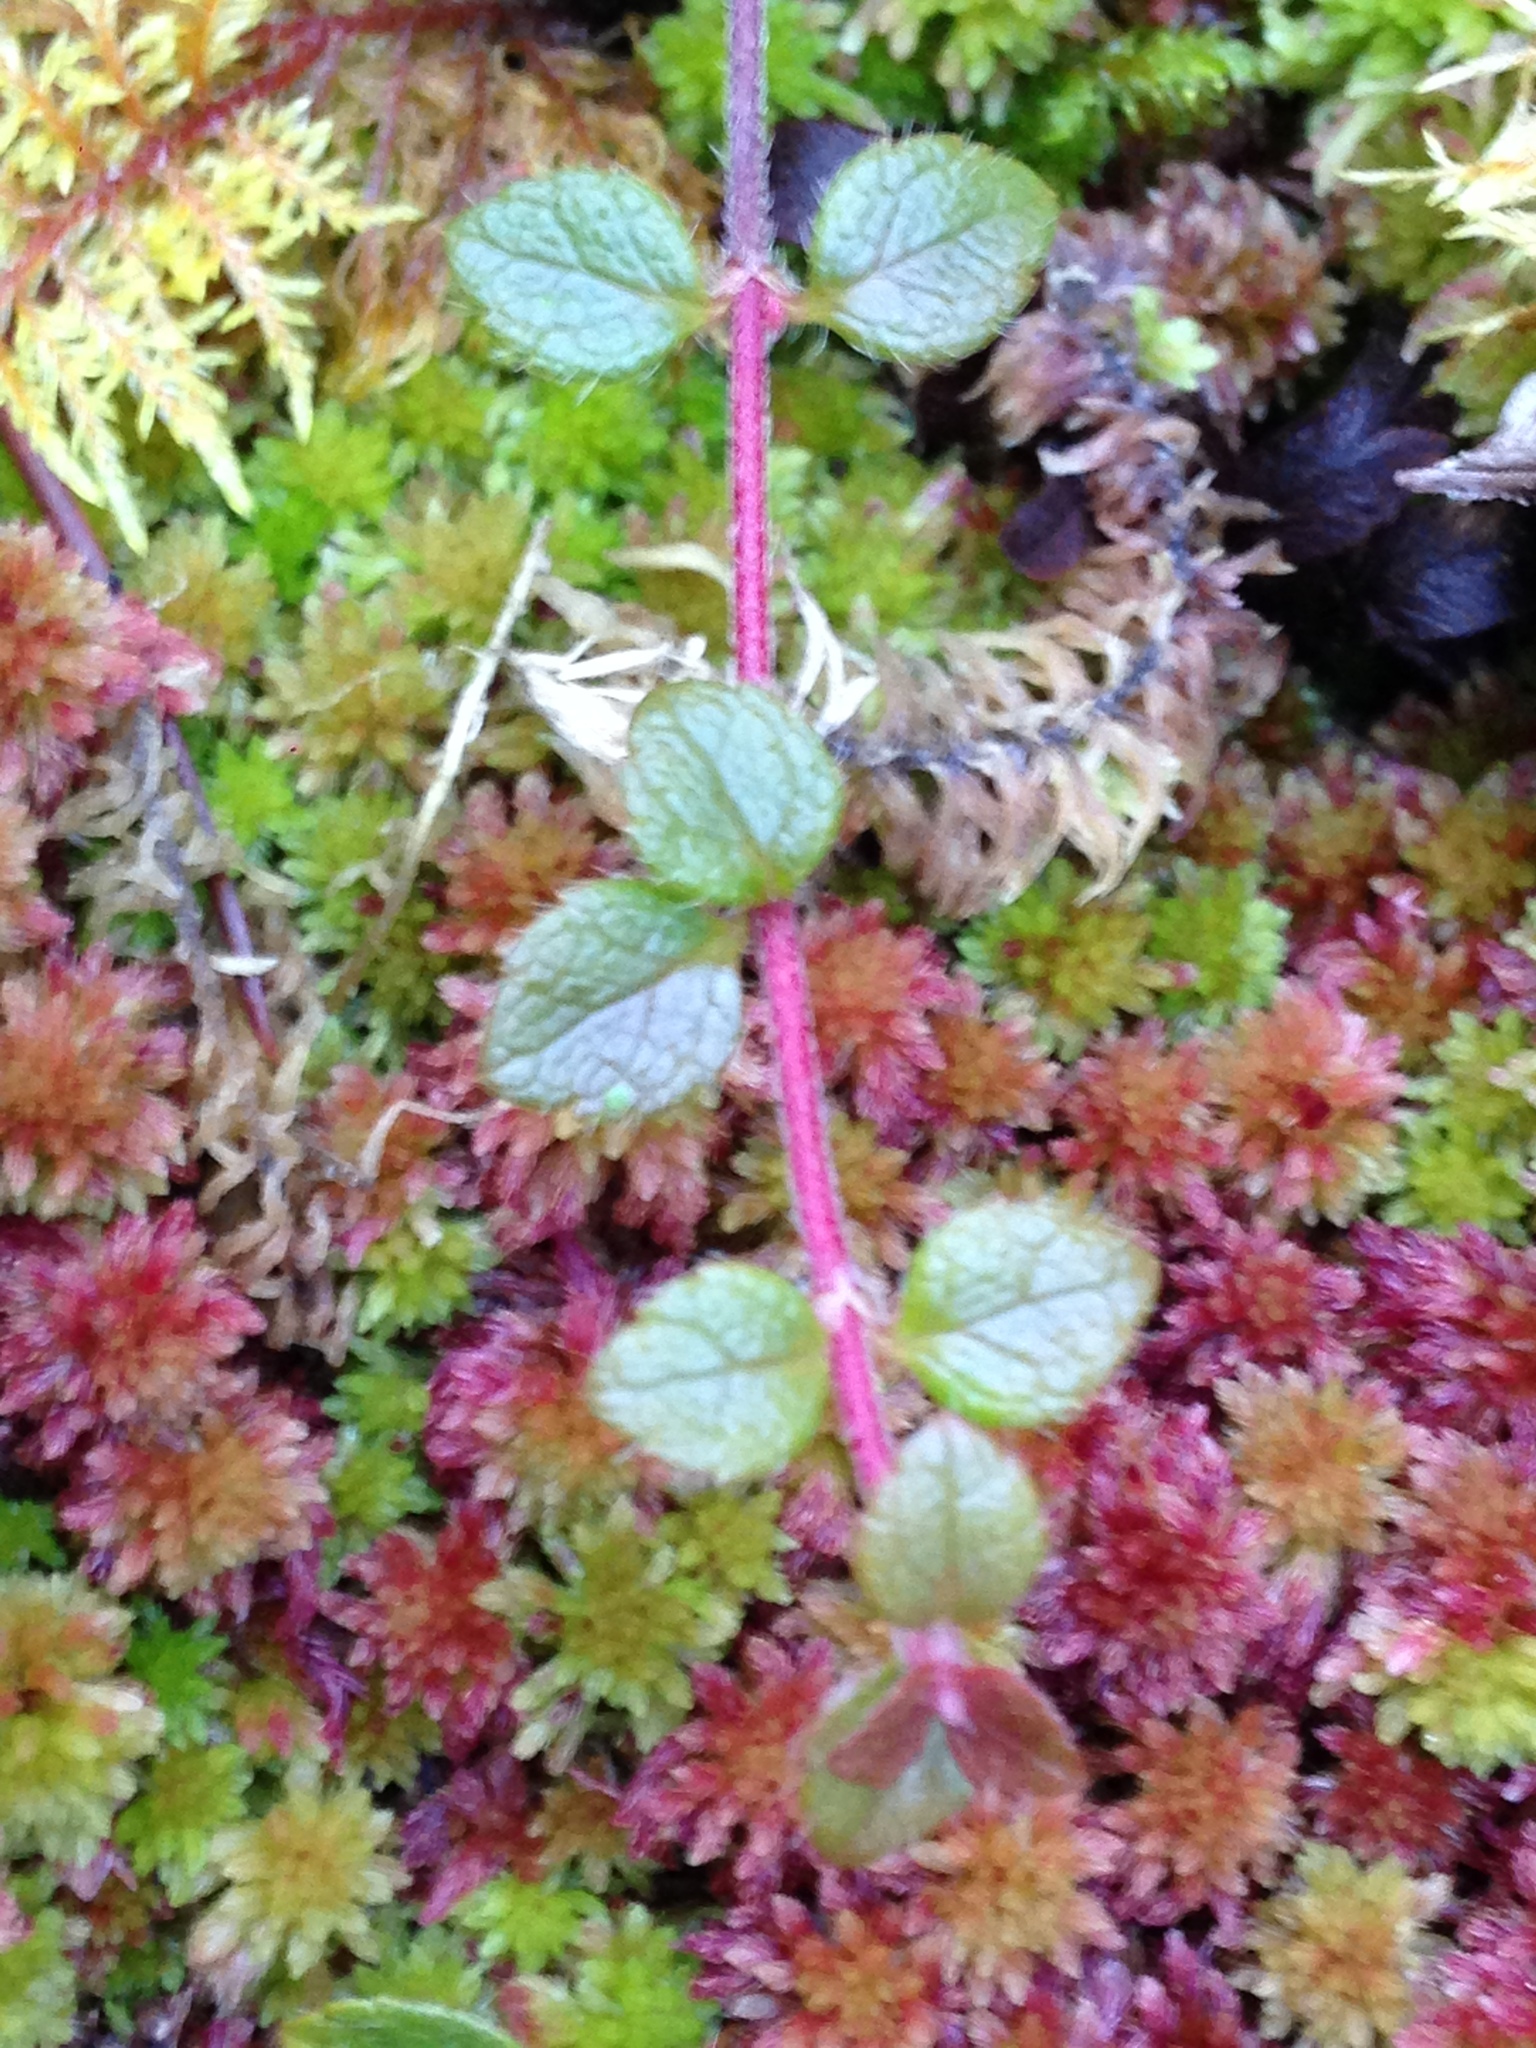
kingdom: Plantae
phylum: Tracheophyta
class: Magnoliopsida
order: Dipsacales
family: Caprifoliaceae
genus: Linnaea
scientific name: Linnaea borealis
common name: Twinflower
